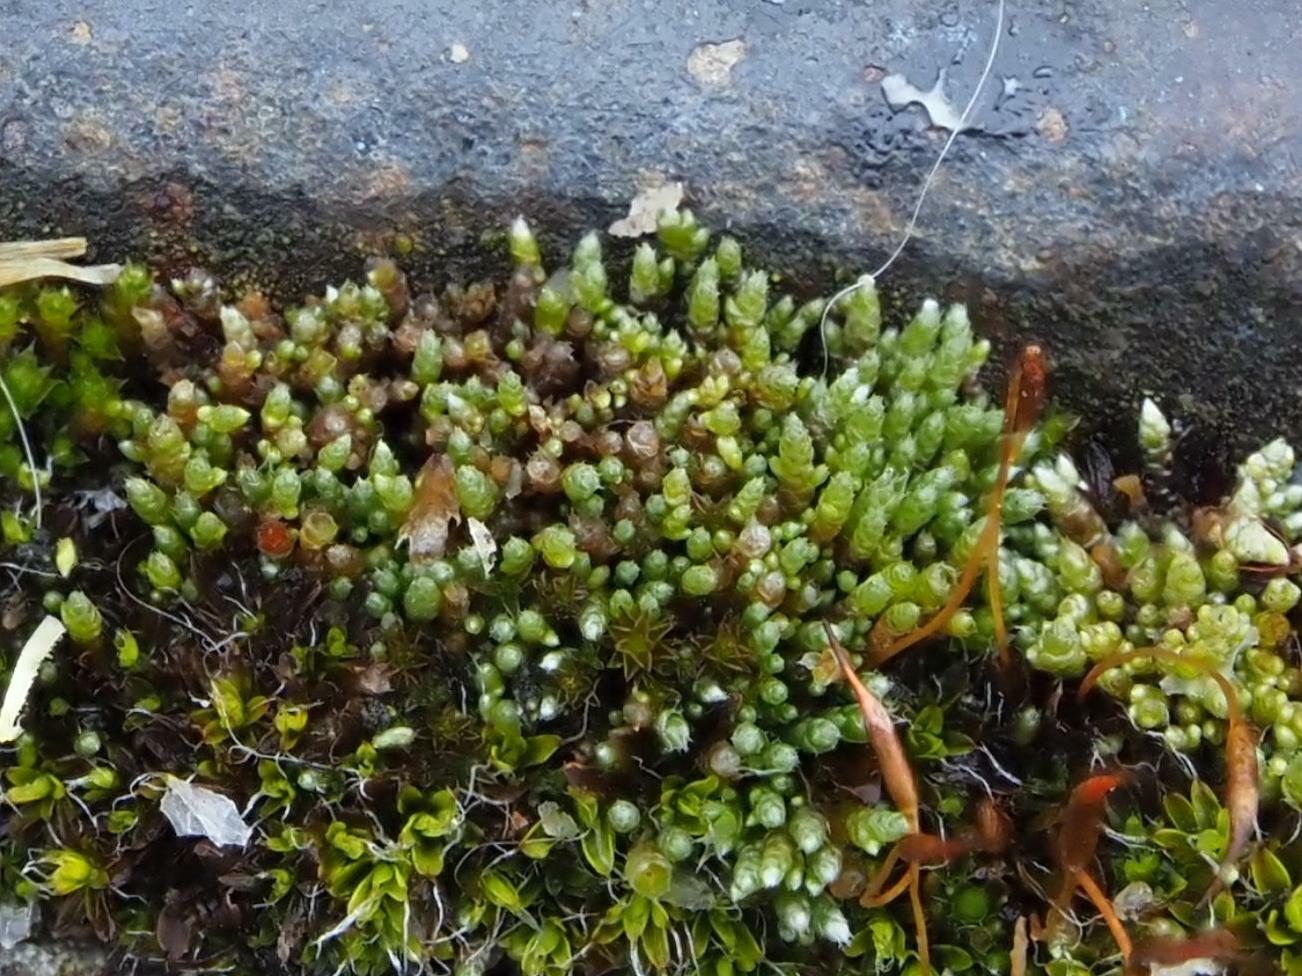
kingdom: Plantae
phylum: Bryophyta
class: Bryopsida
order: Bryales
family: Bryaceae
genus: Bryum
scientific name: Bryum argenteum
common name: Silver-moss
